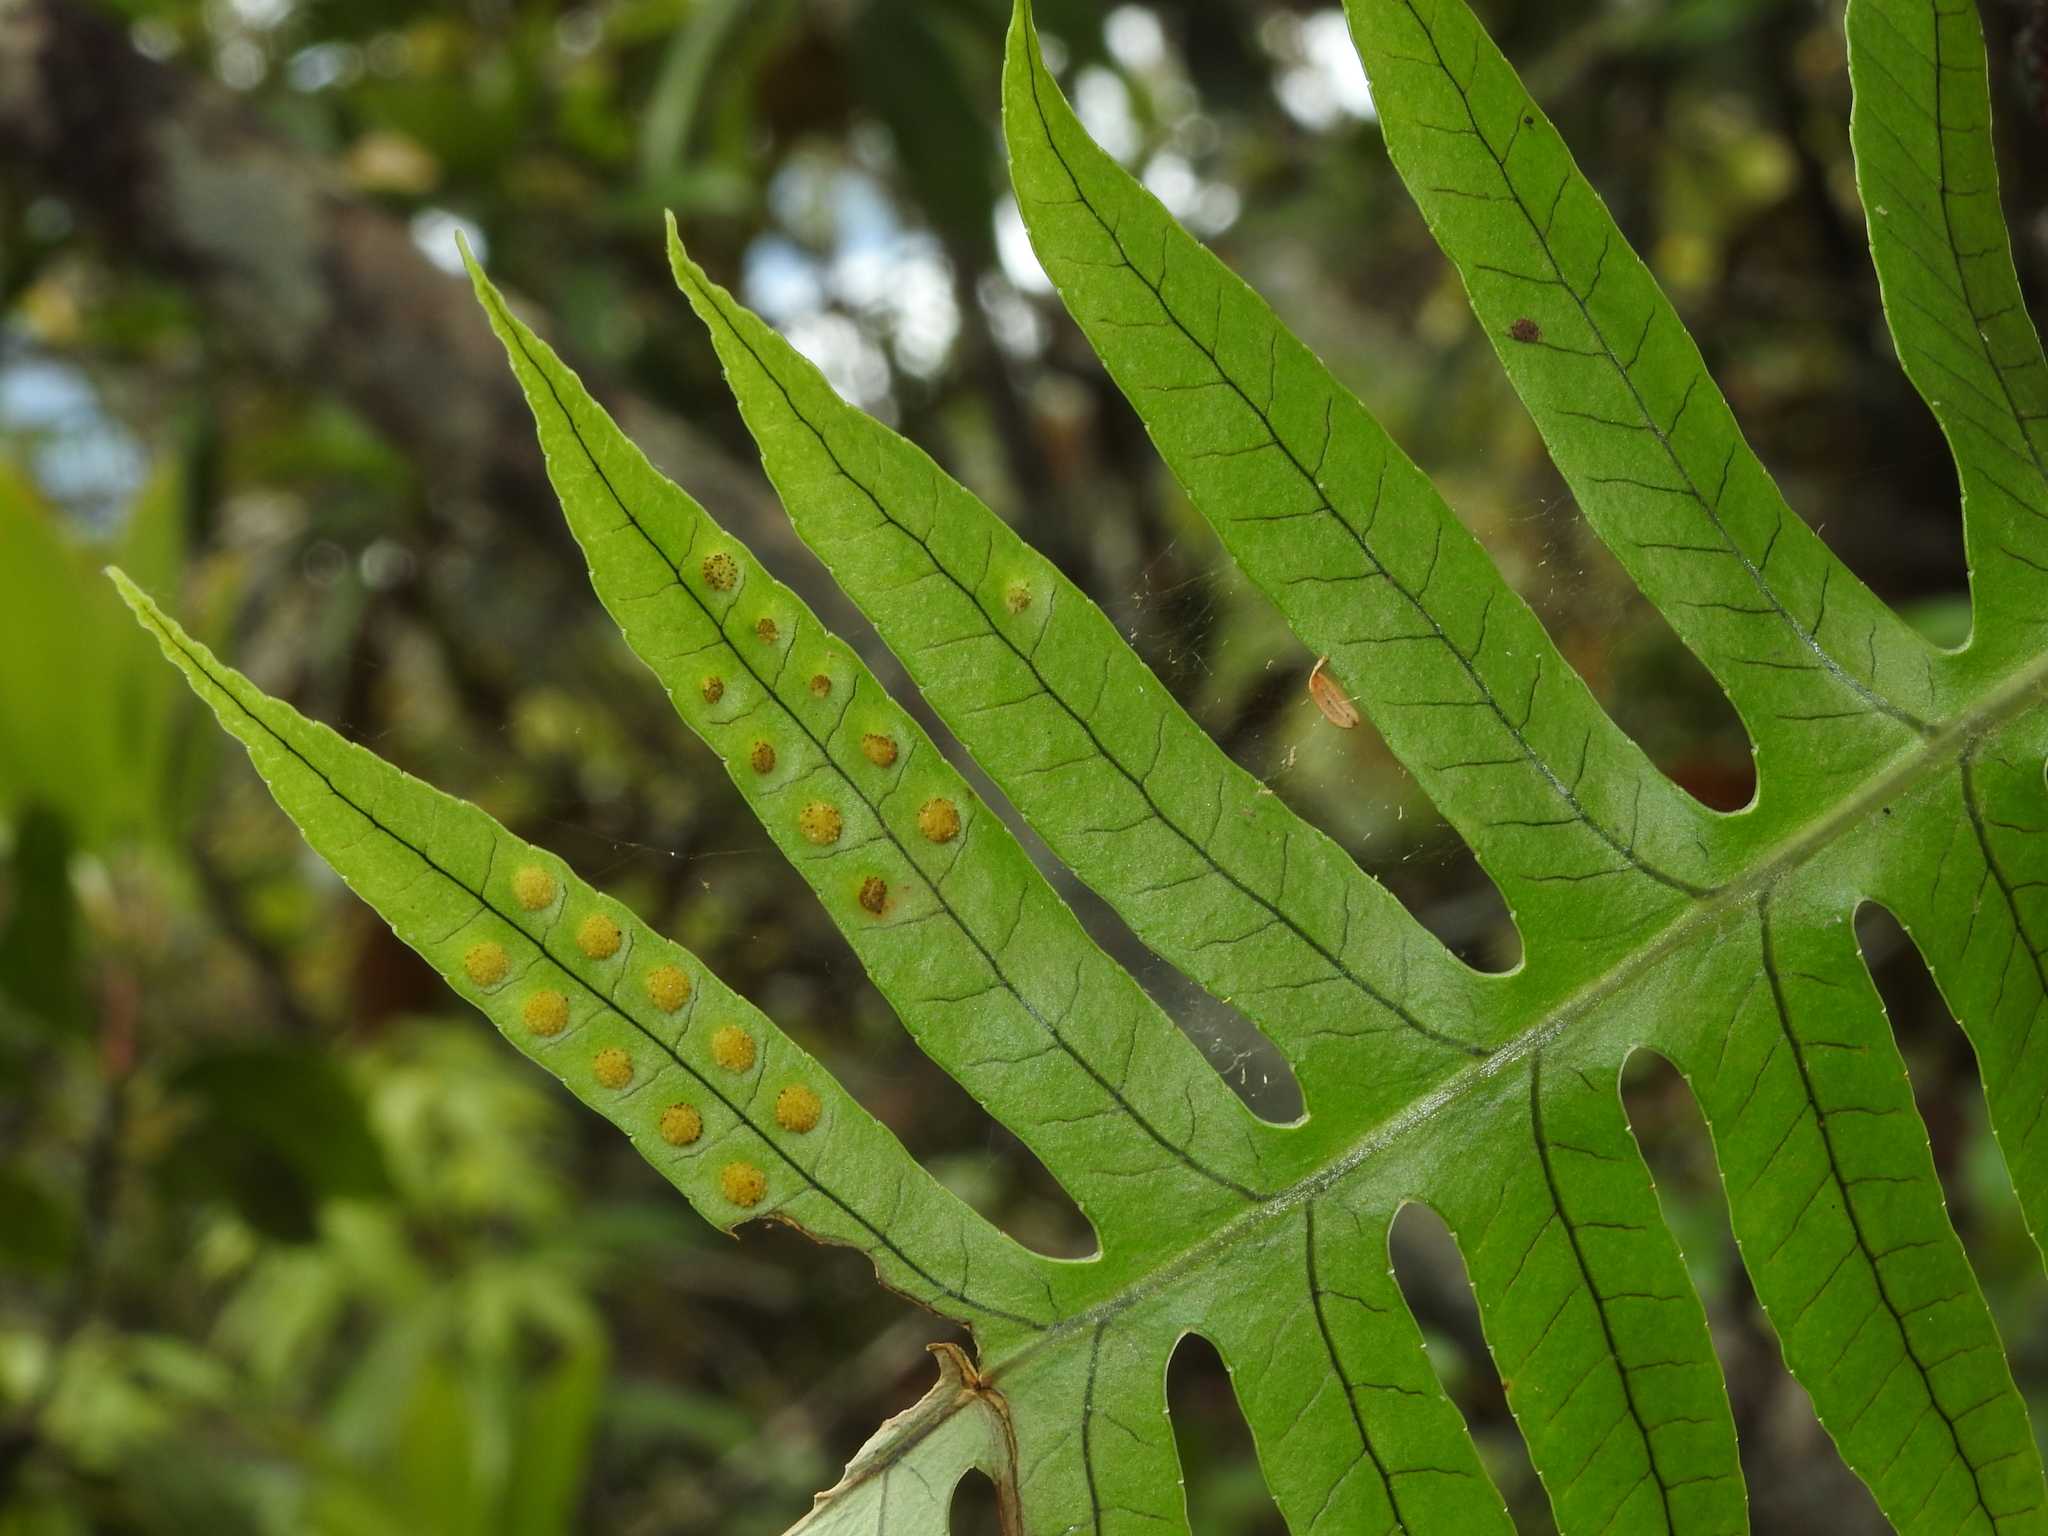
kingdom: Plantae
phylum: Tracheophyta
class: Polypodiopsida
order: Polypodiales
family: Polypodiaceae
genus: Selliguea
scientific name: Selliguea echinospora
